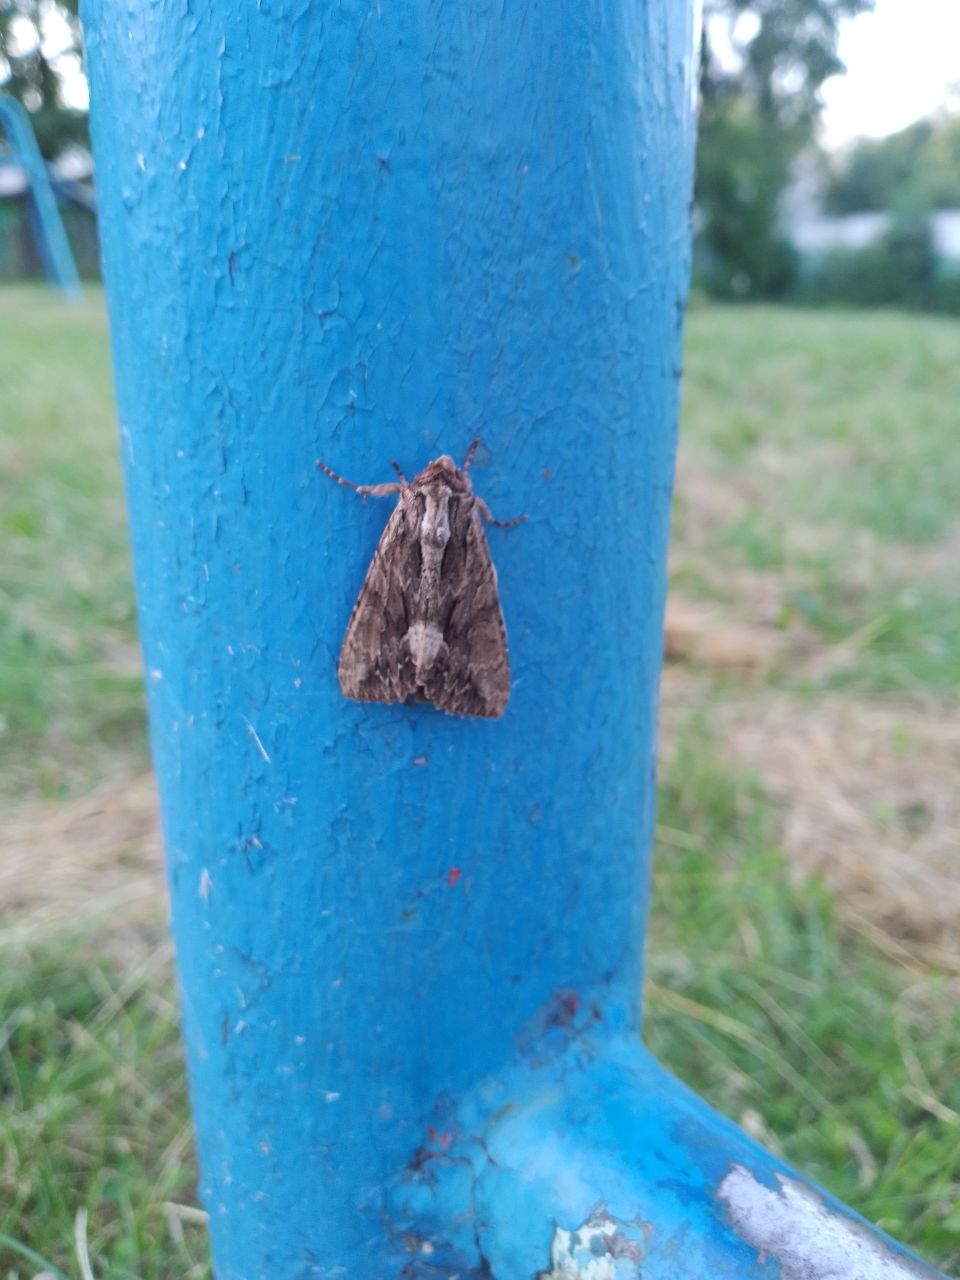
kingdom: Animalia
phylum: Arthropoda
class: Insecta
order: Lepidoptera
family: Noctuidae
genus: Apamea
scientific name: Apamea monoglypha
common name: Dark arches
